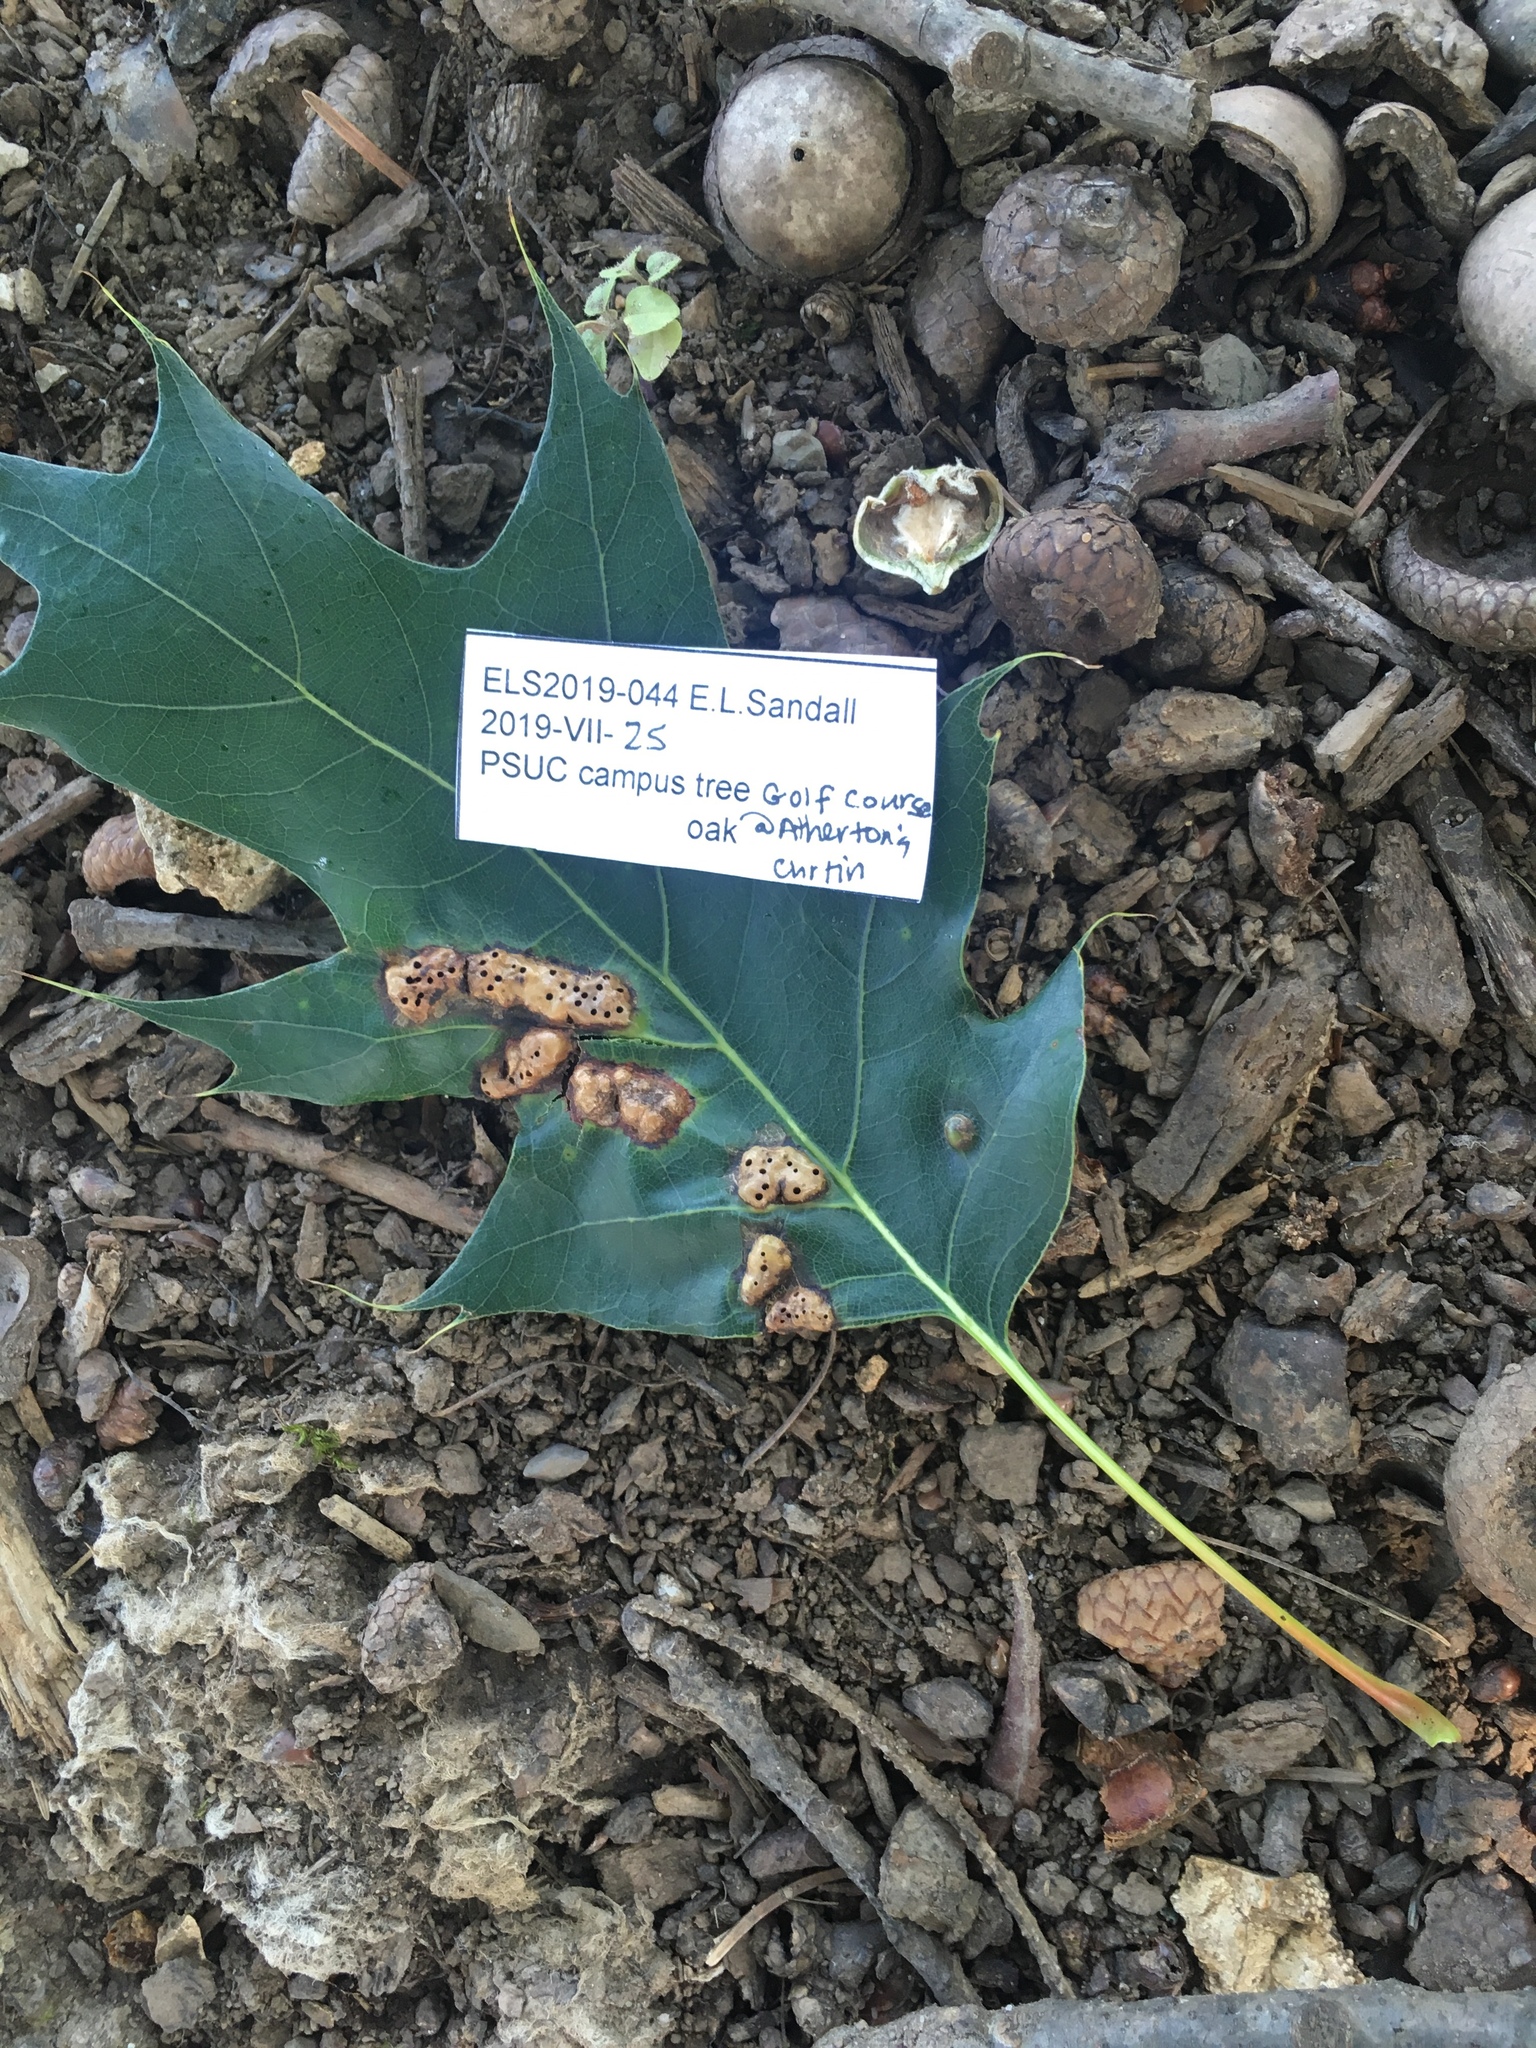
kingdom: Animalia
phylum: Arthropoda
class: Insecta
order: Hymenoptera
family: Cynipidae
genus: Callirhytis
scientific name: Callirhytis
